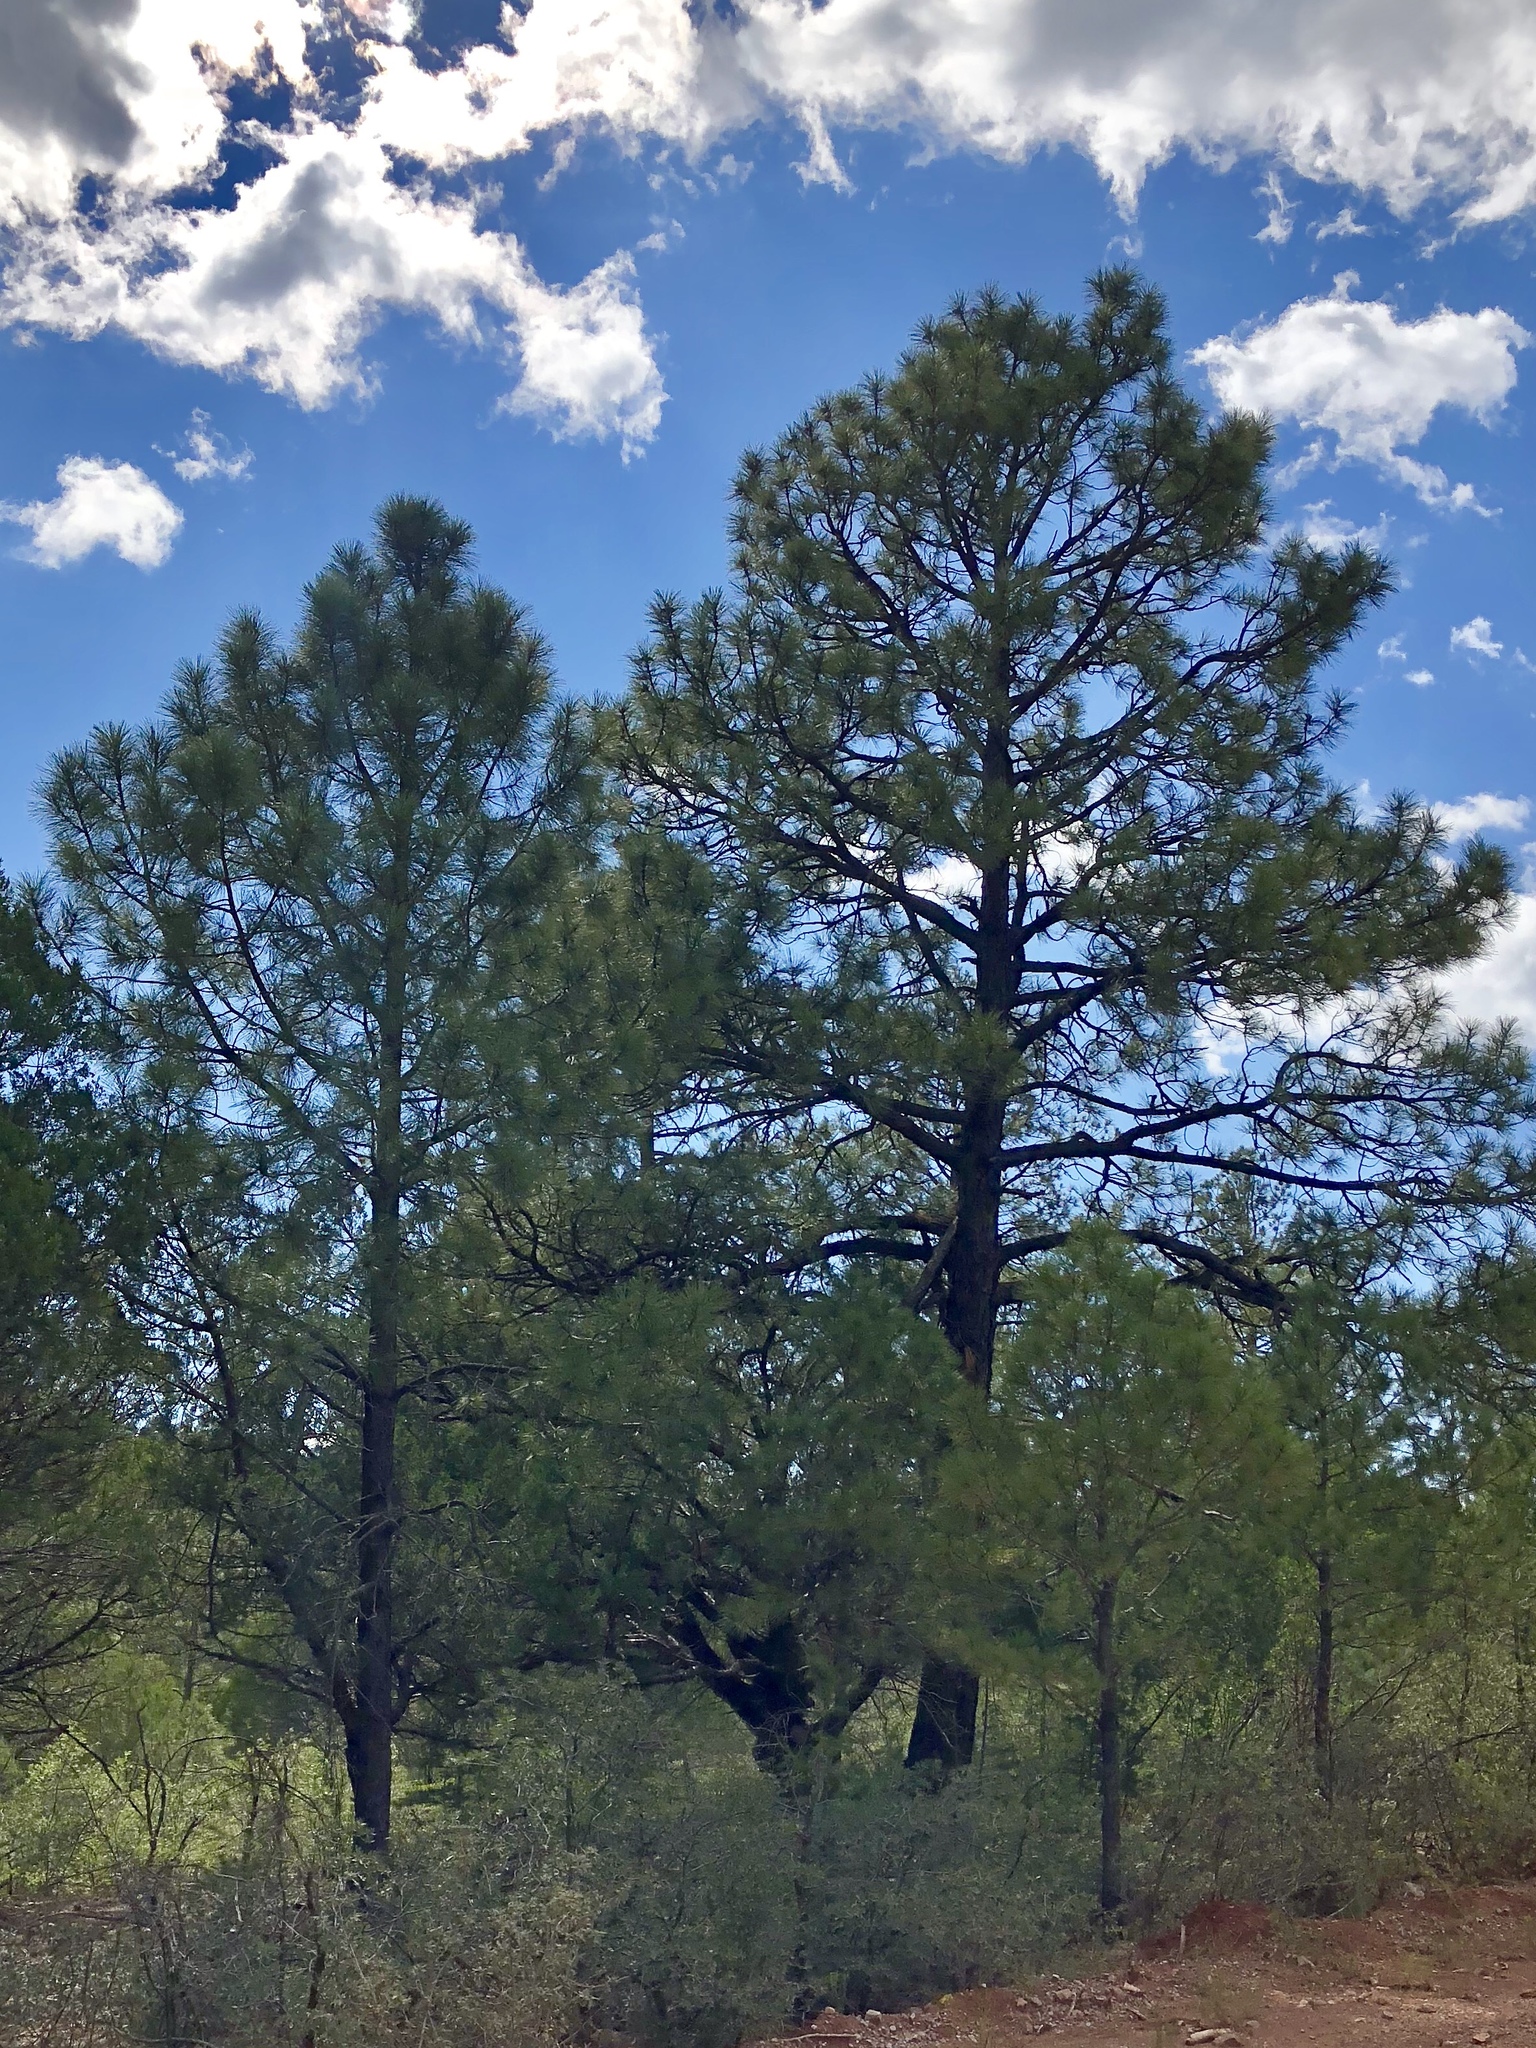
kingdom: Plantae
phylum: Tracheophyta
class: Pinopsida
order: Pinales
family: Pinaceae
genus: Pinus
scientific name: Pinus ponderosa
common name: Western yellow-pine
